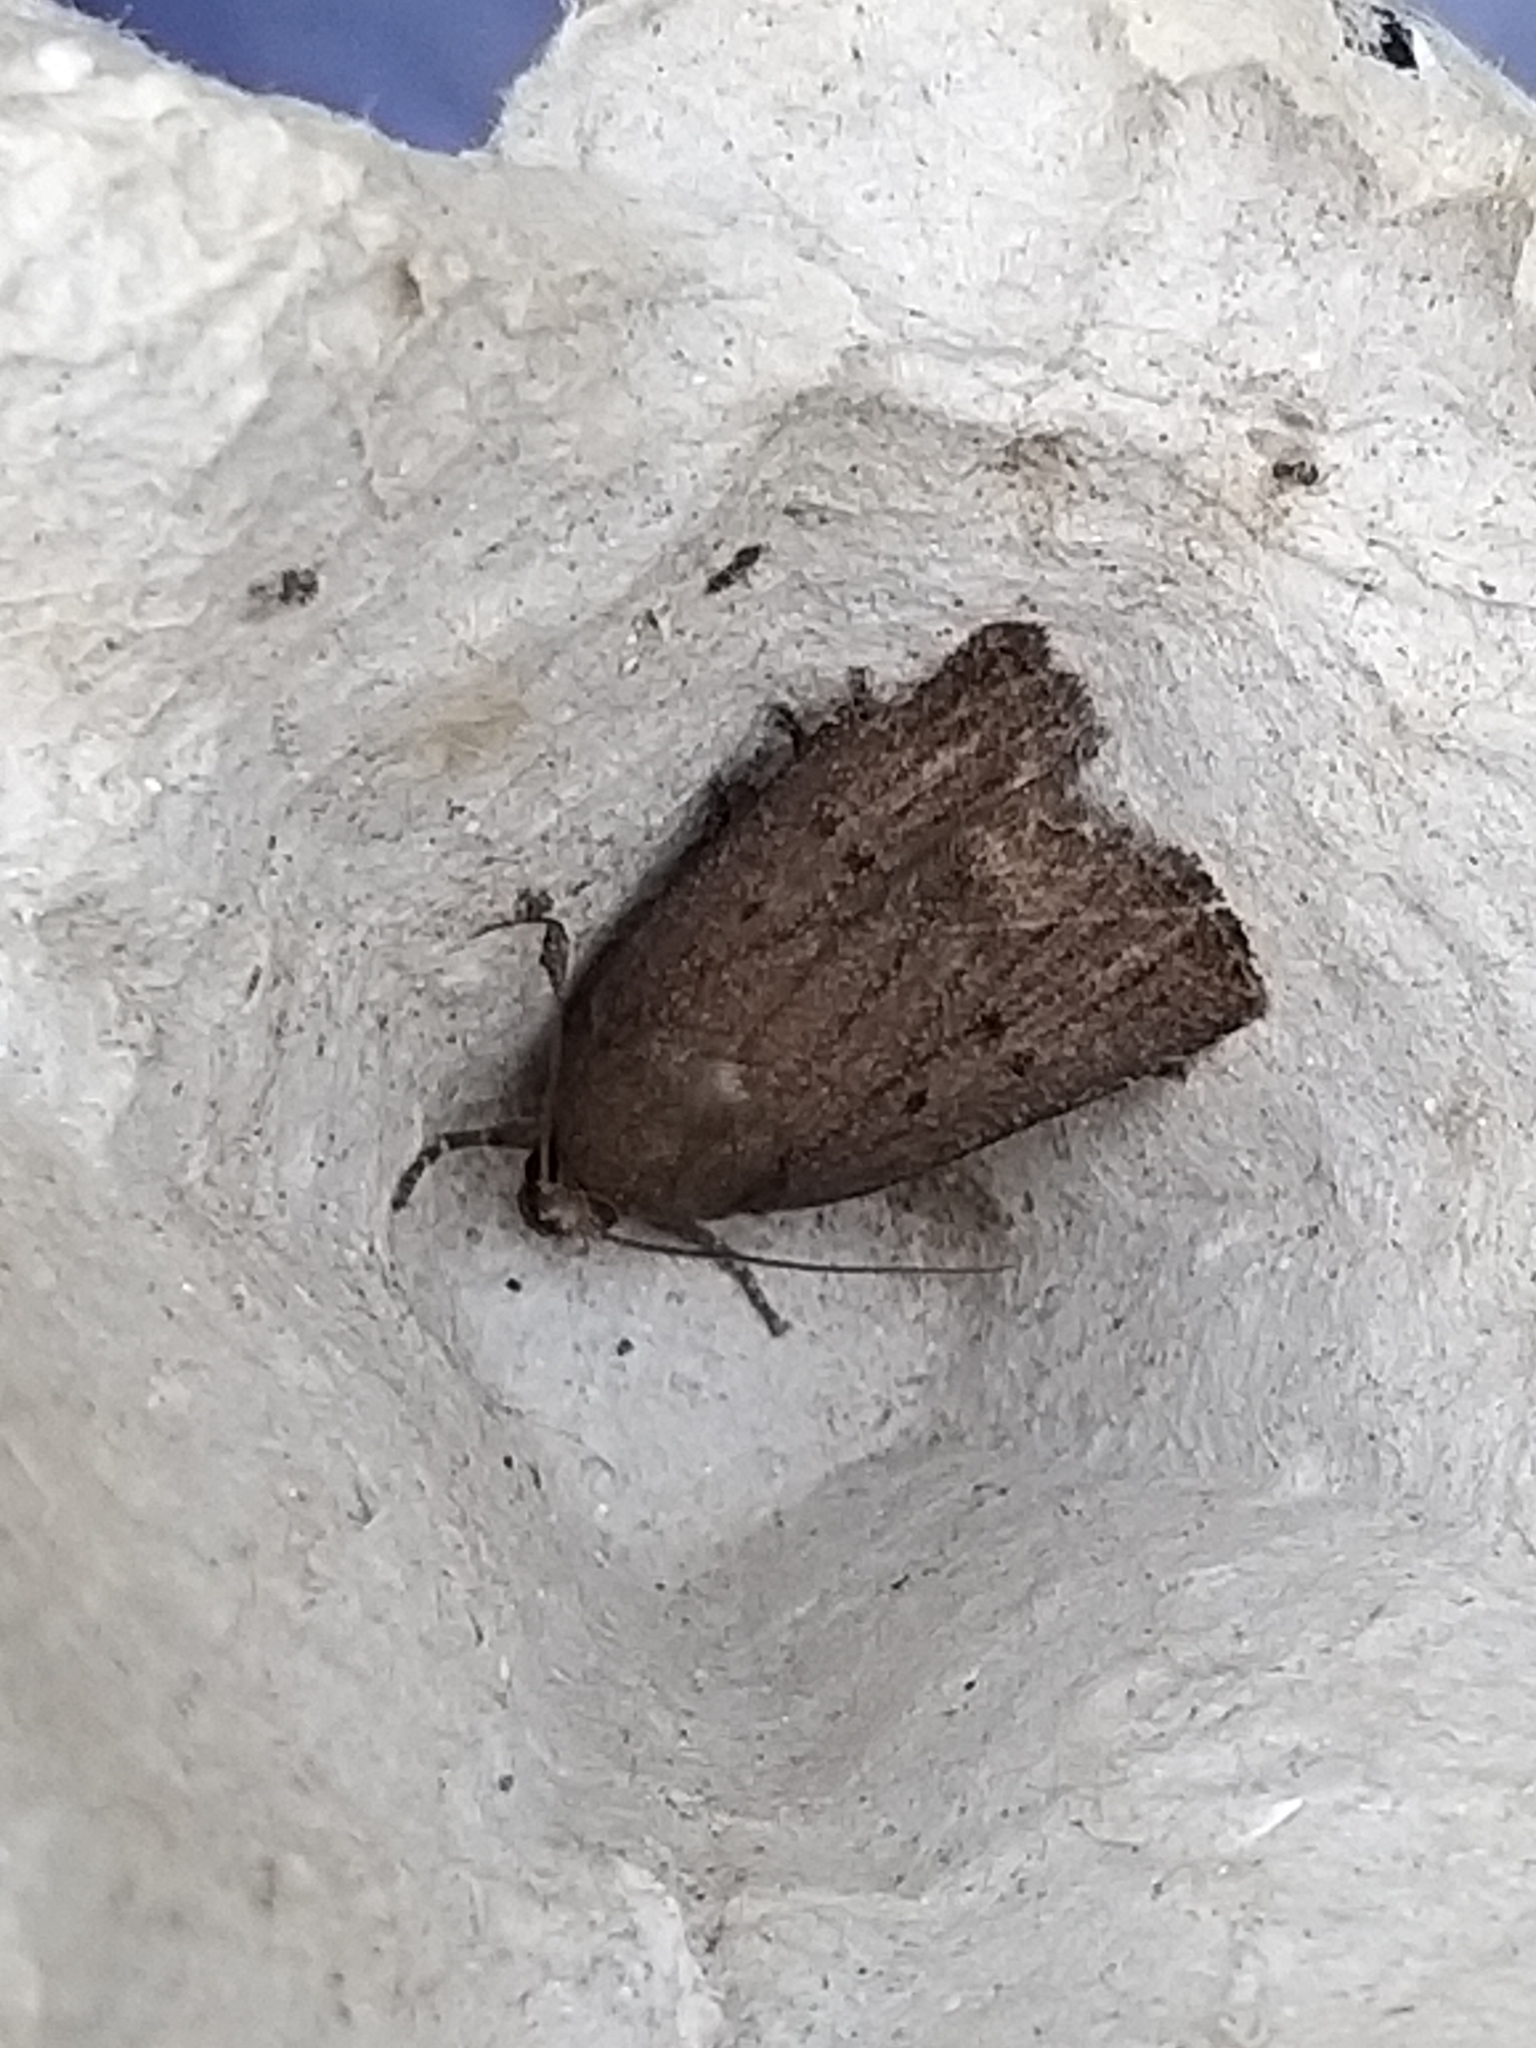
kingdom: Animalia
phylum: Arthropoda
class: Insecta
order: Lepidoptera
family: Noctuidae
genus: Amphipyra
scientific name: Amphipyra tragopoginis
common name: Mouse moth
